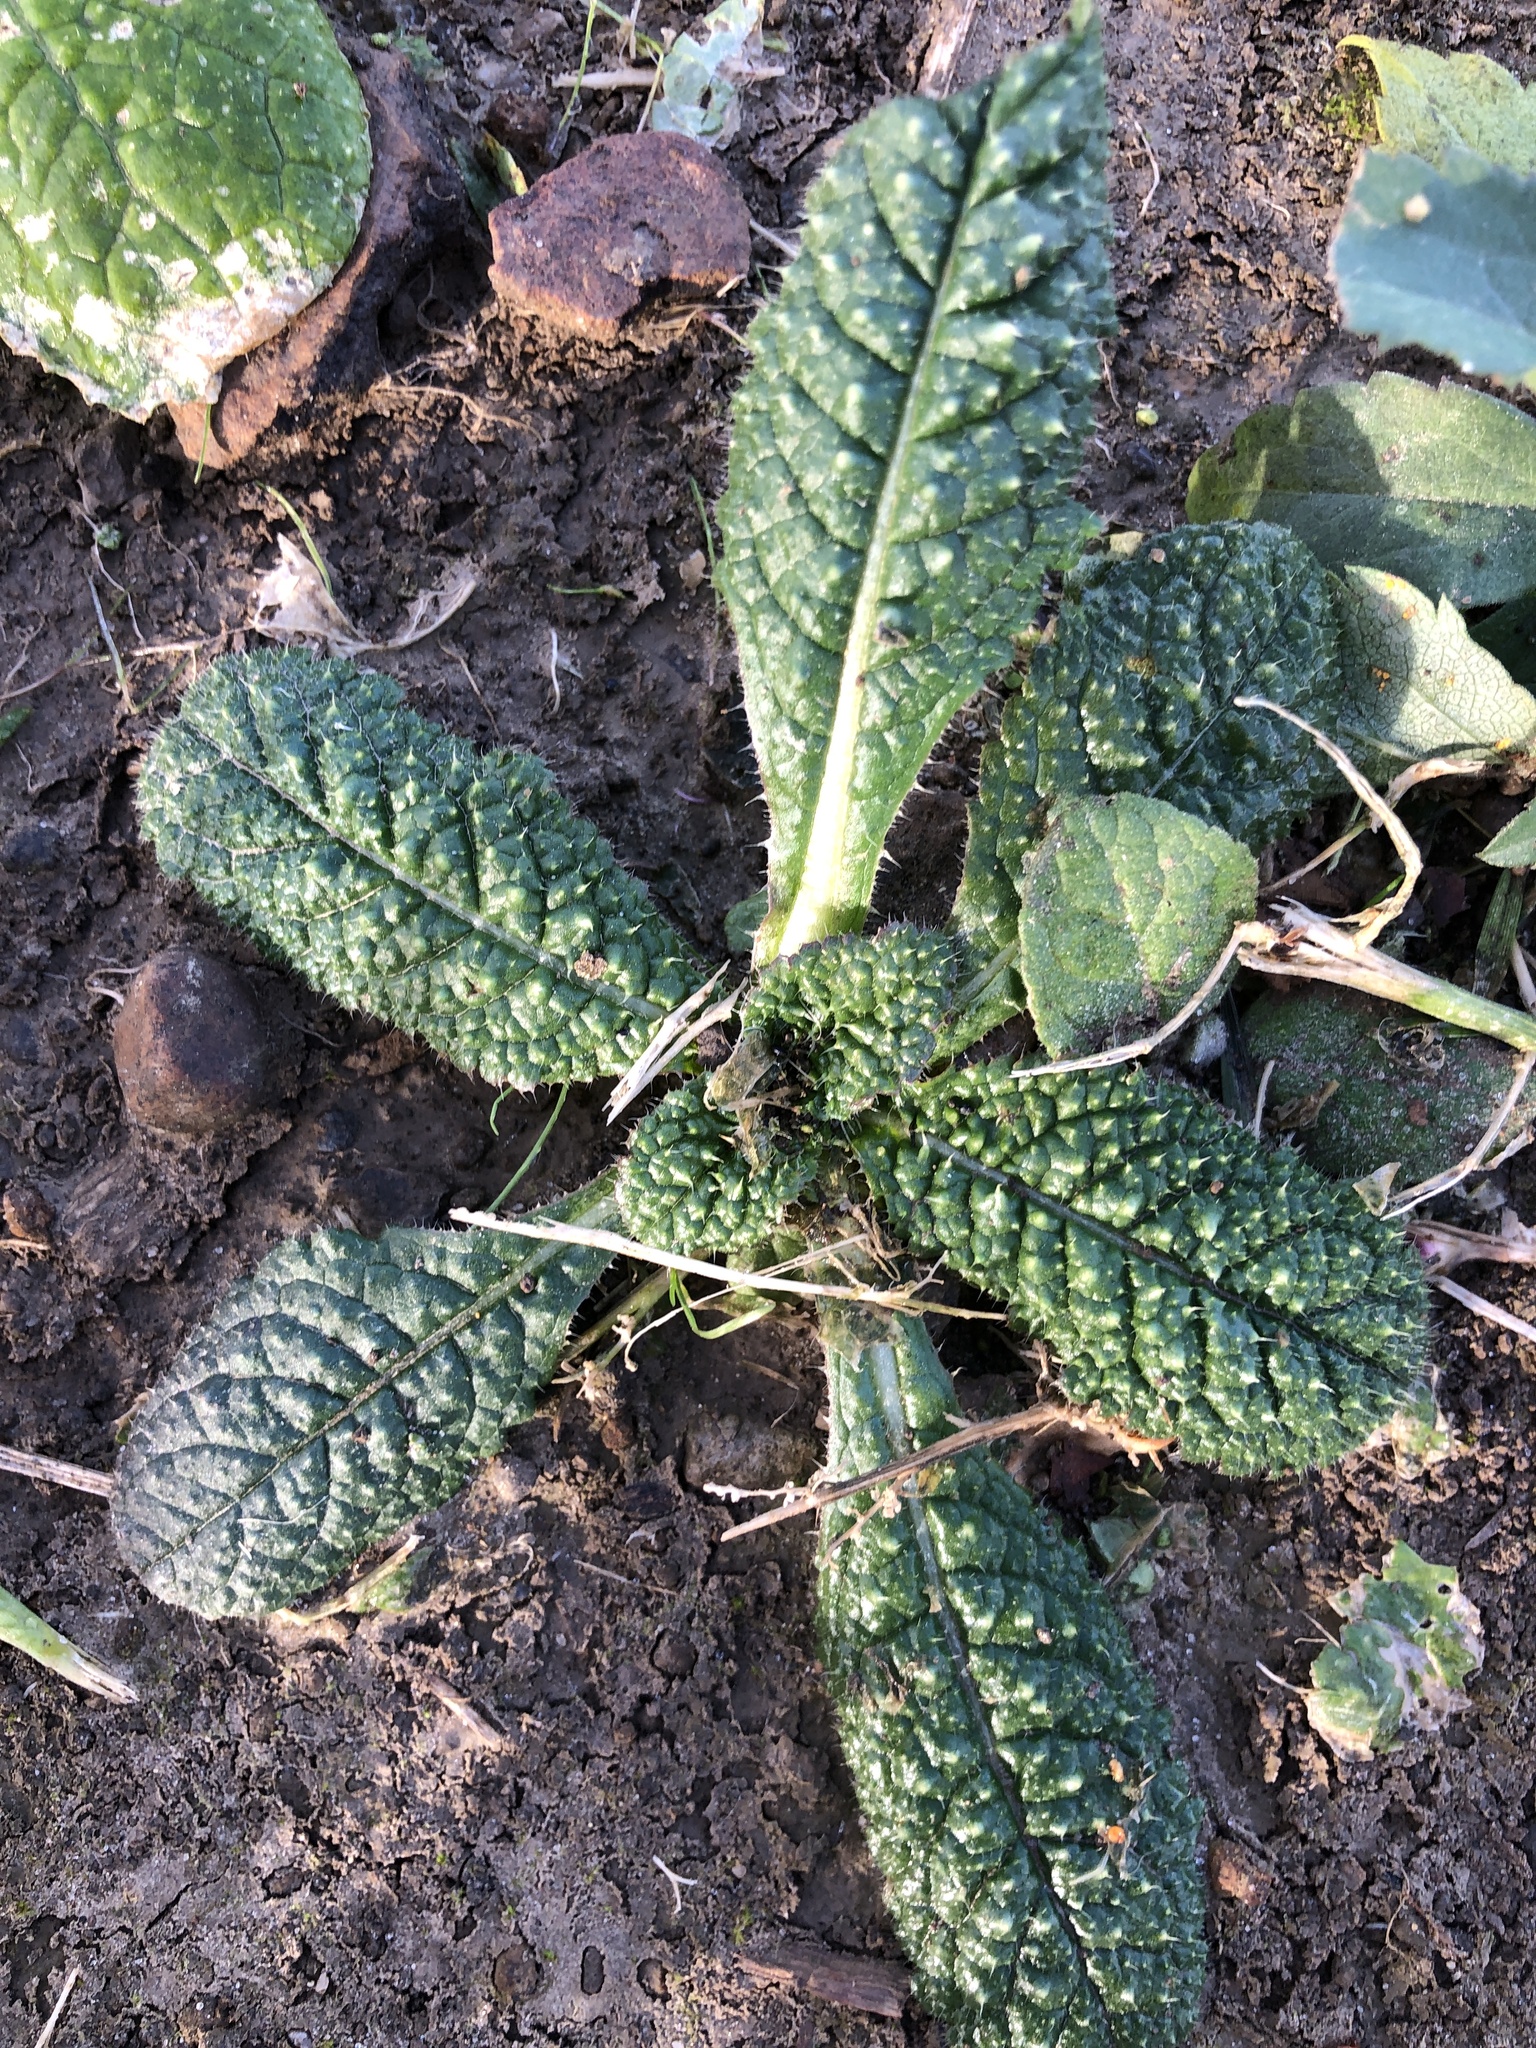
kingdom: Plantae
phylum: Tracheophyta
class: Magnoliopsida
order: Dipsacales
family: Caprifoliaceae
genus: Dipsacus
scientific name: Dipsacus fullonum
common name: Teasel
